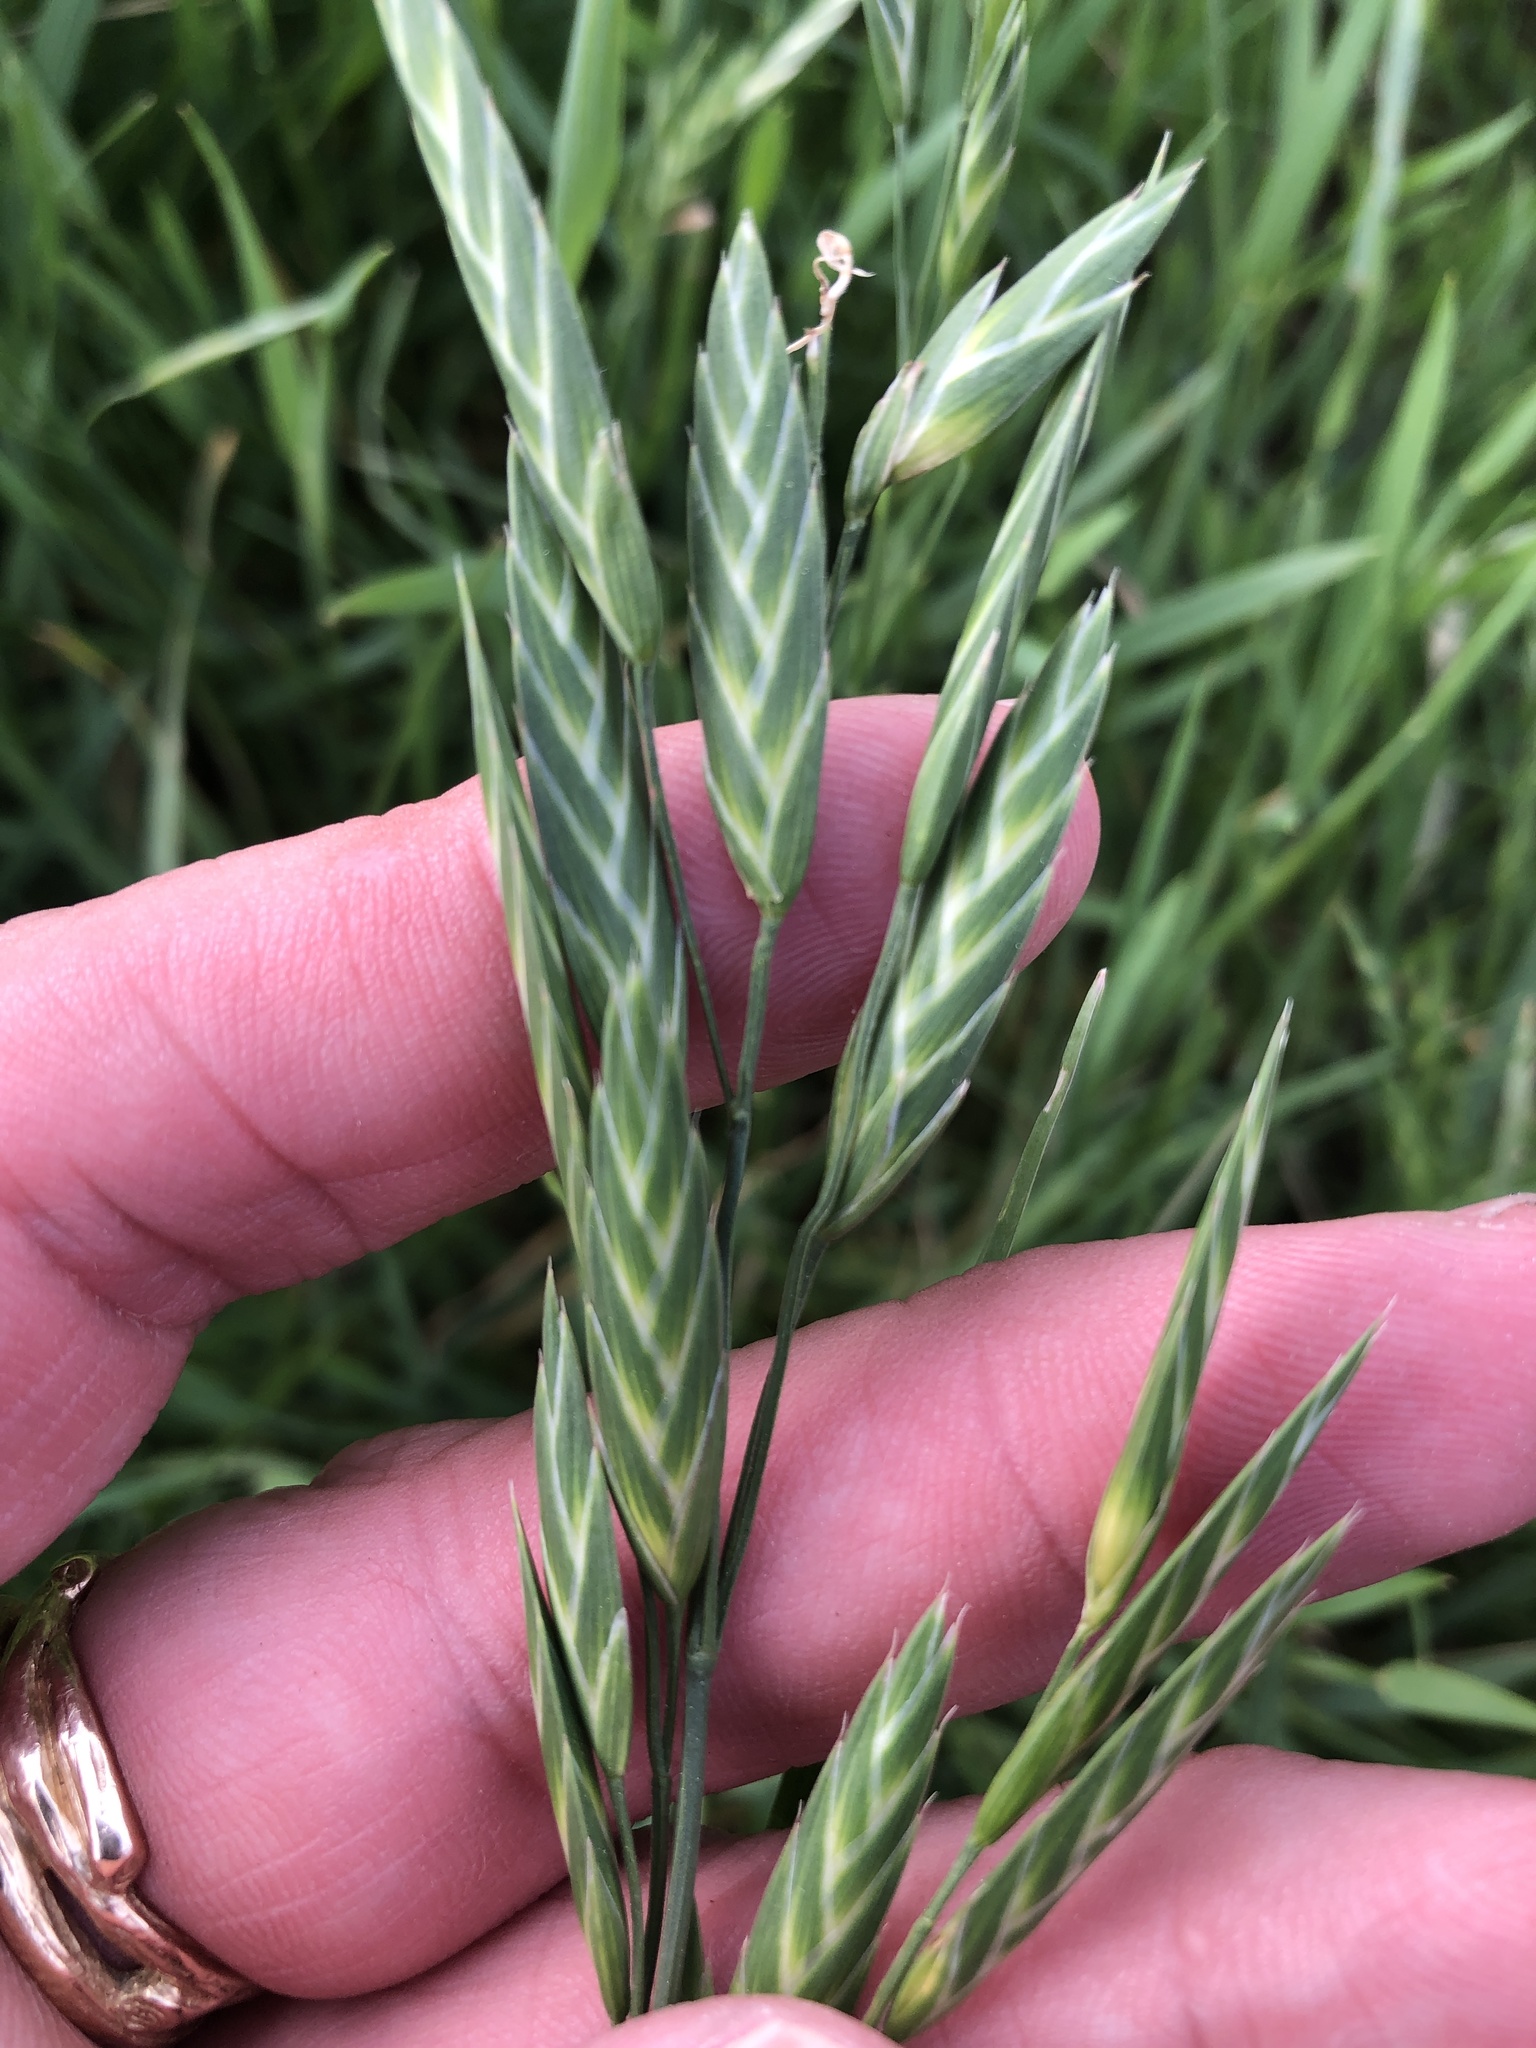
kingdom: Plantae
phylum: Tracheophyta
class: Liliopsida
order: Poales
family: Poaceae
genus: Bromus
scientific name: Bromus catharticus
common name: Rescuegrass
